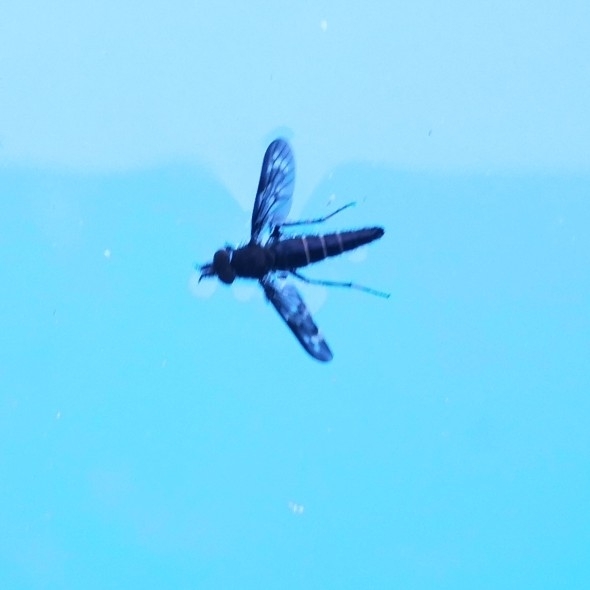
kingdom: Animalia
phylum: Arthropoda
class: Insecta
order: Diptera
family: Therevidae
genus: Pachyrrhiza
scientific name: Pachyrrhiza pictipennis
